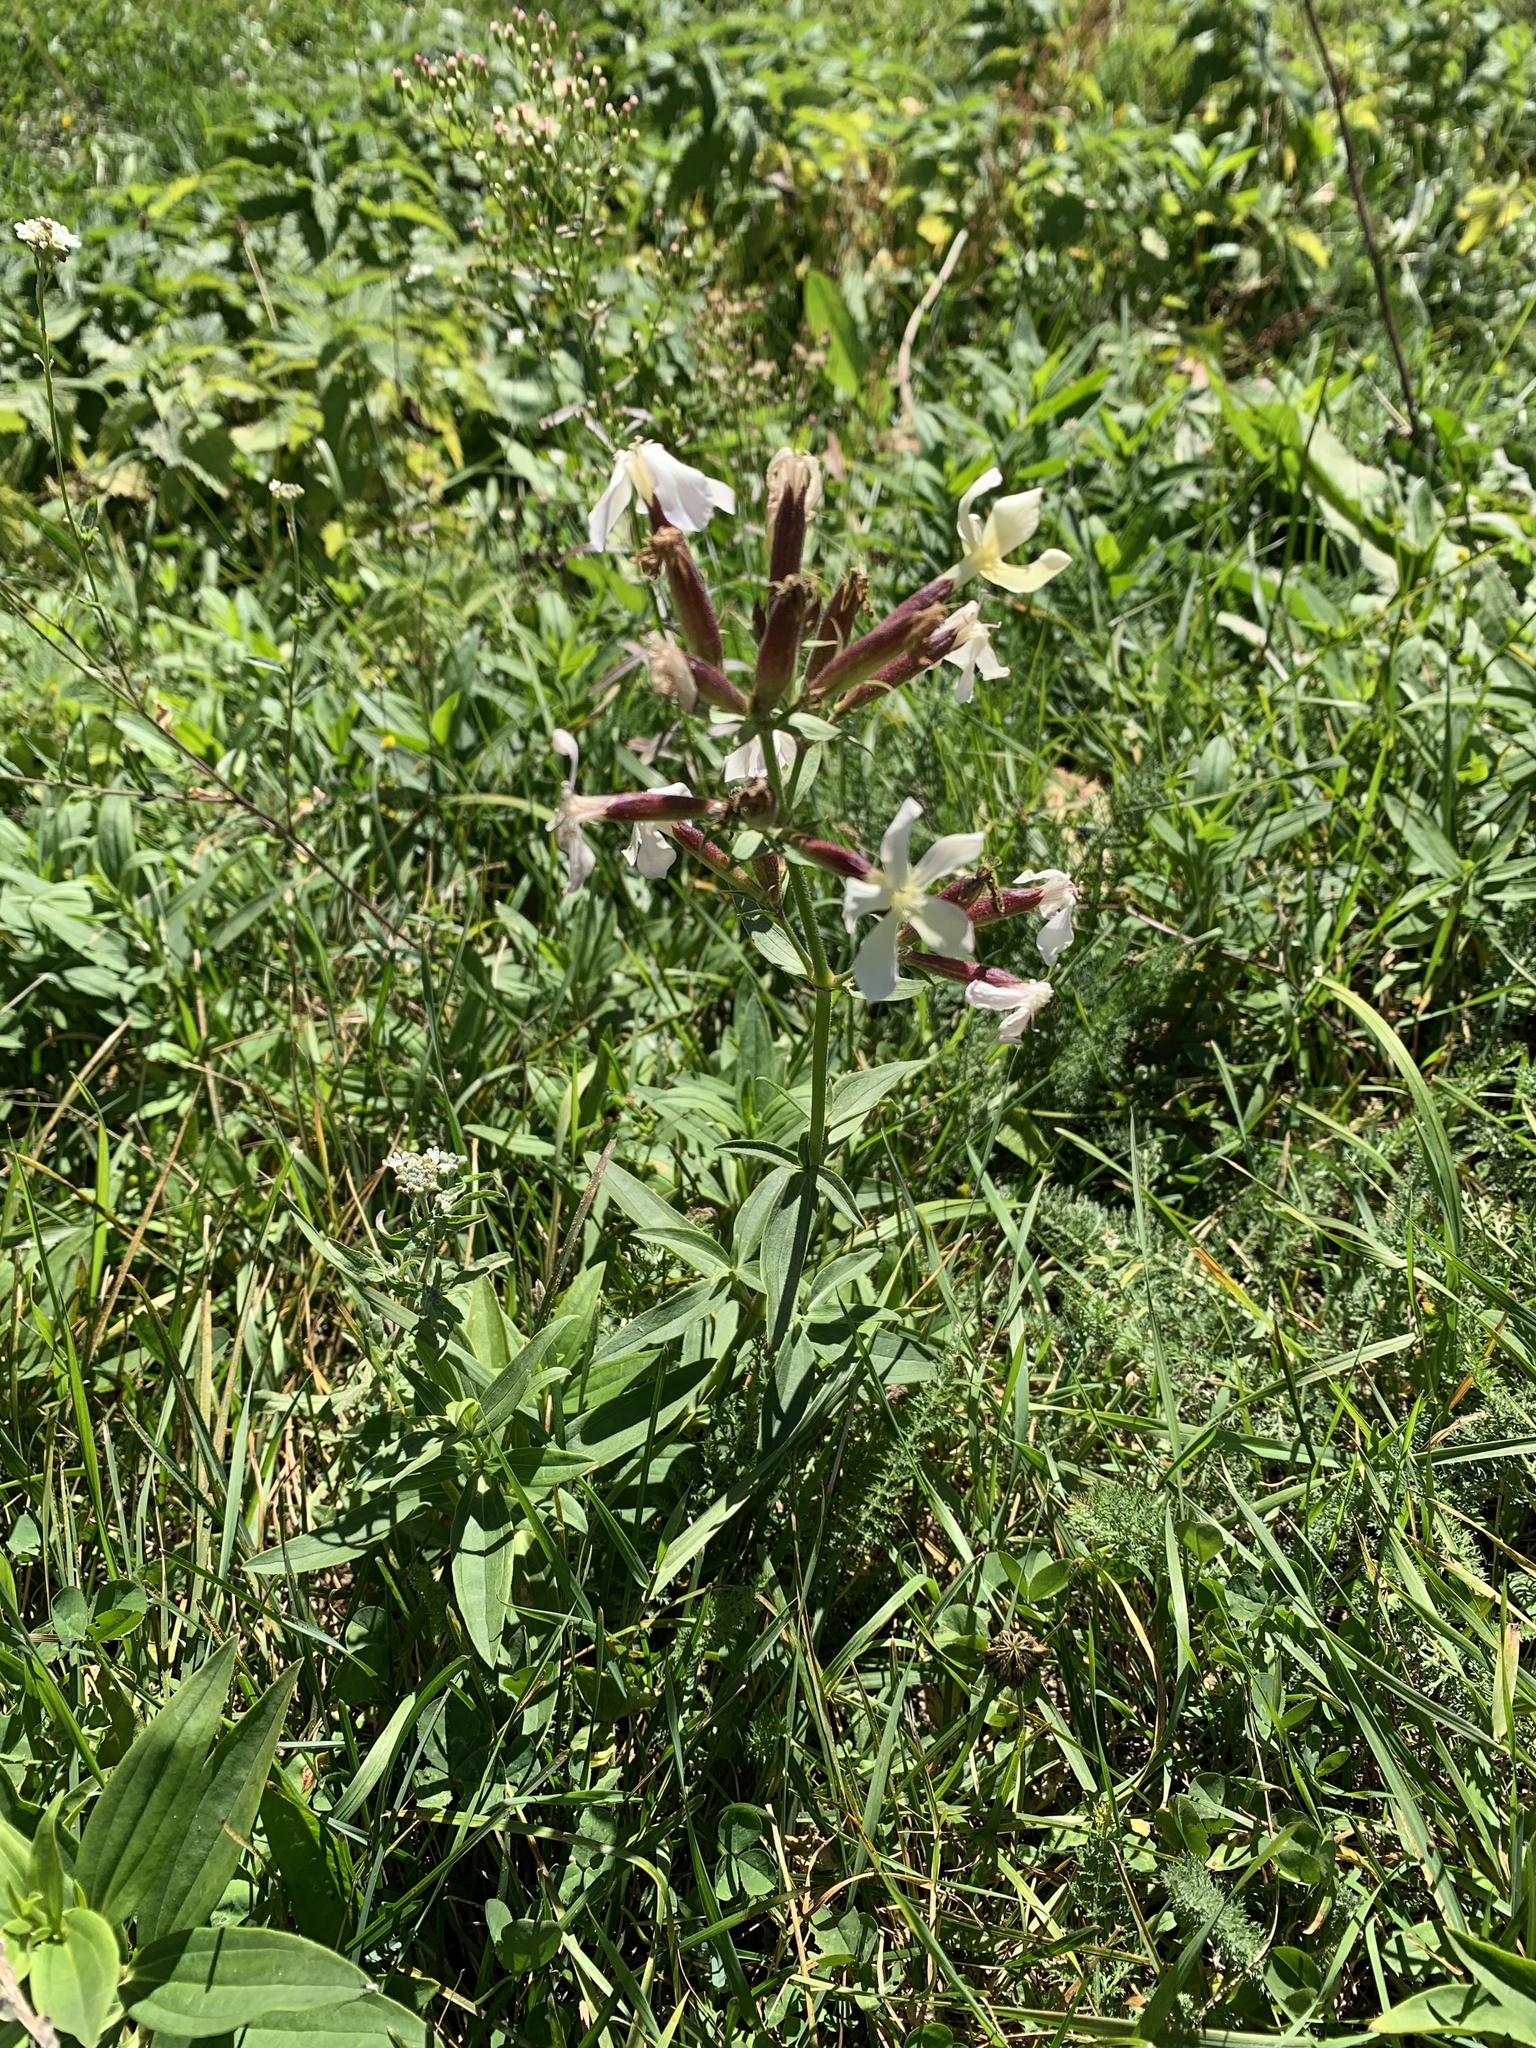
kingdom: Plantae
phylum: Tracheophyta
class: Magnoliopsida
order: Caryophyllales
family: Caryophyllaceae
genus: Saponaria
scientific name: Saponaria officinalis
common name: Soapwort
